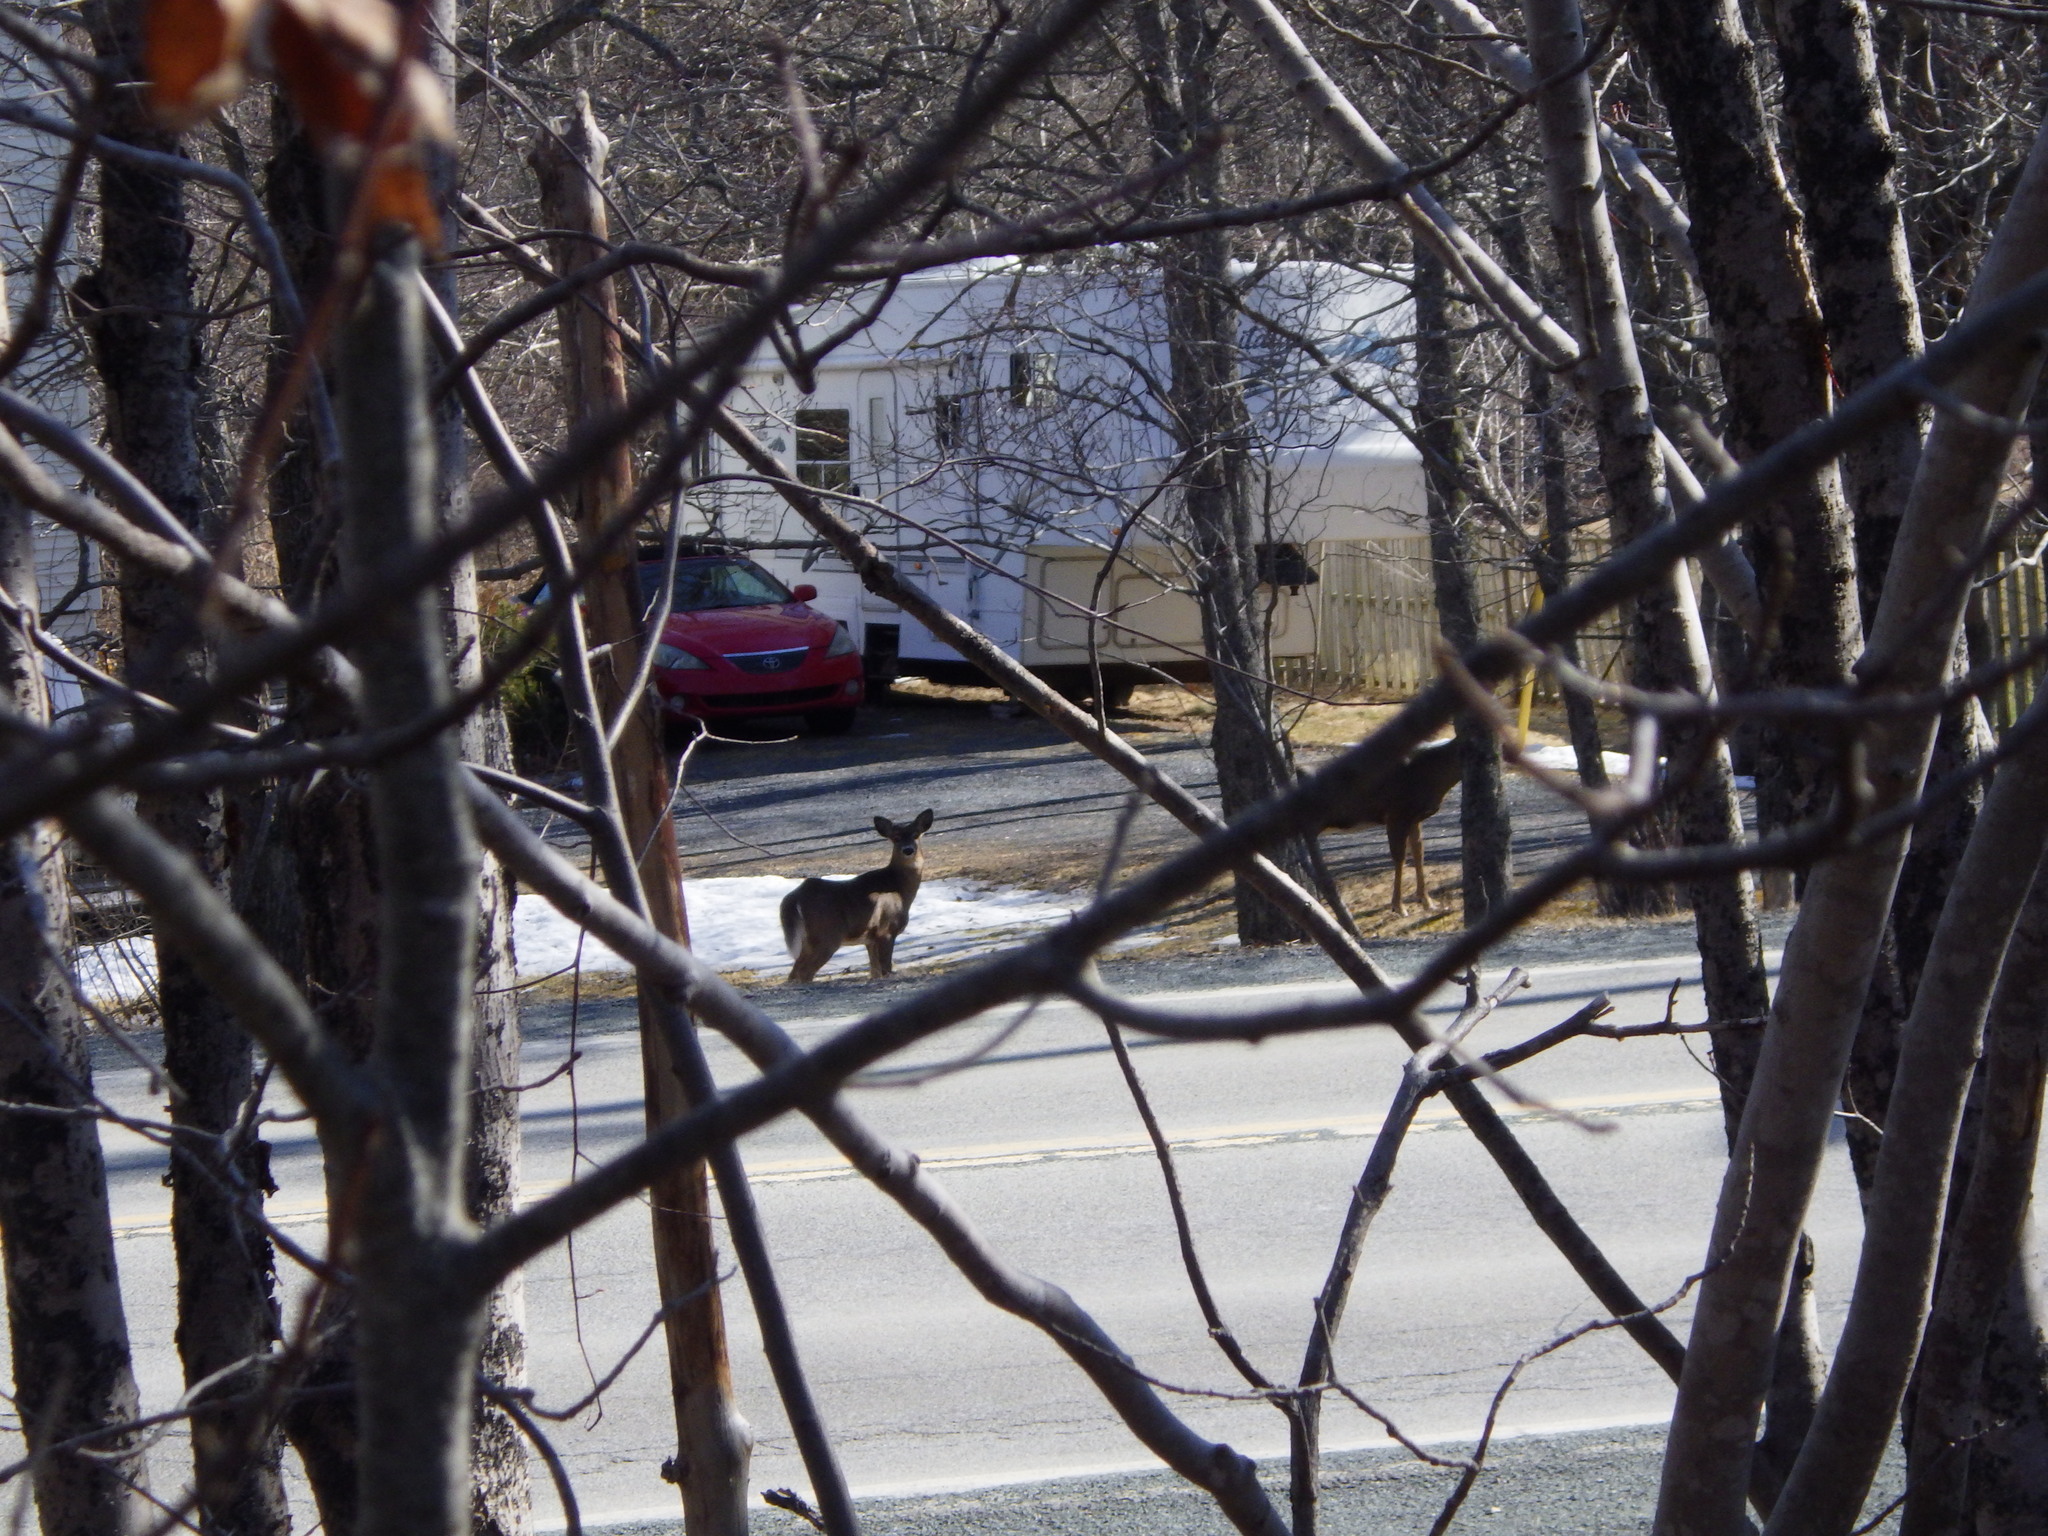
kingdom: Animalia
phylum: Chordata
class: Mammalia
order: Artiodactyla
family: Cervidae
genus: Odocoileus
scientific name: Odocoileus virginianus
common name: White-tailed deer
